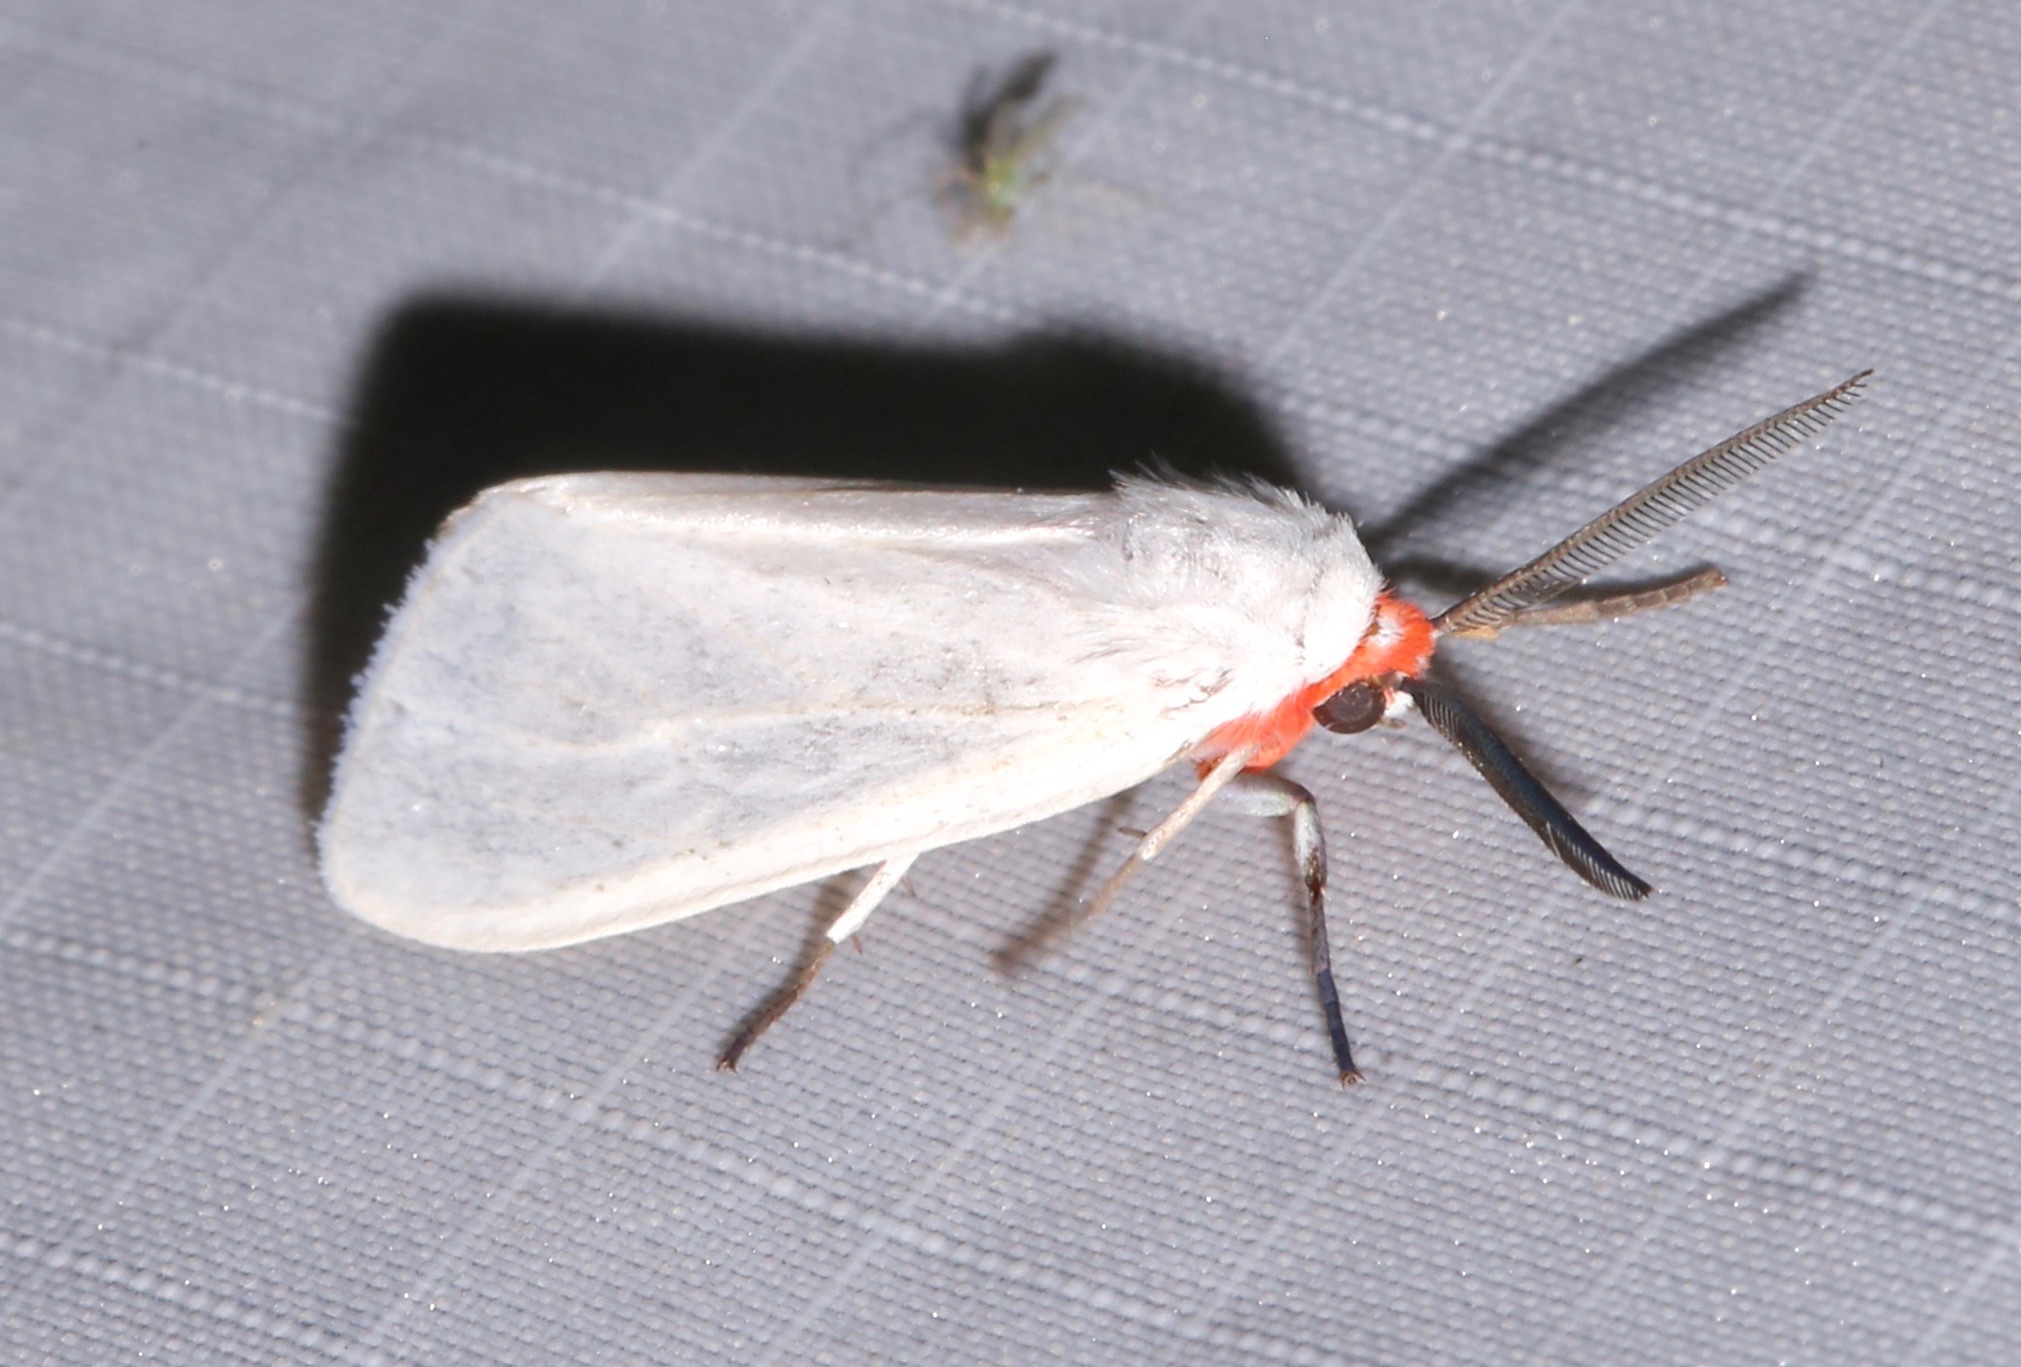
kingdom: Animalia
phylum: Arthropoda
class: Insecta
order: Lepidoptera
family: Erebidae
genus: Pygarctia
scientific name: Pygarctia roseicapitis
